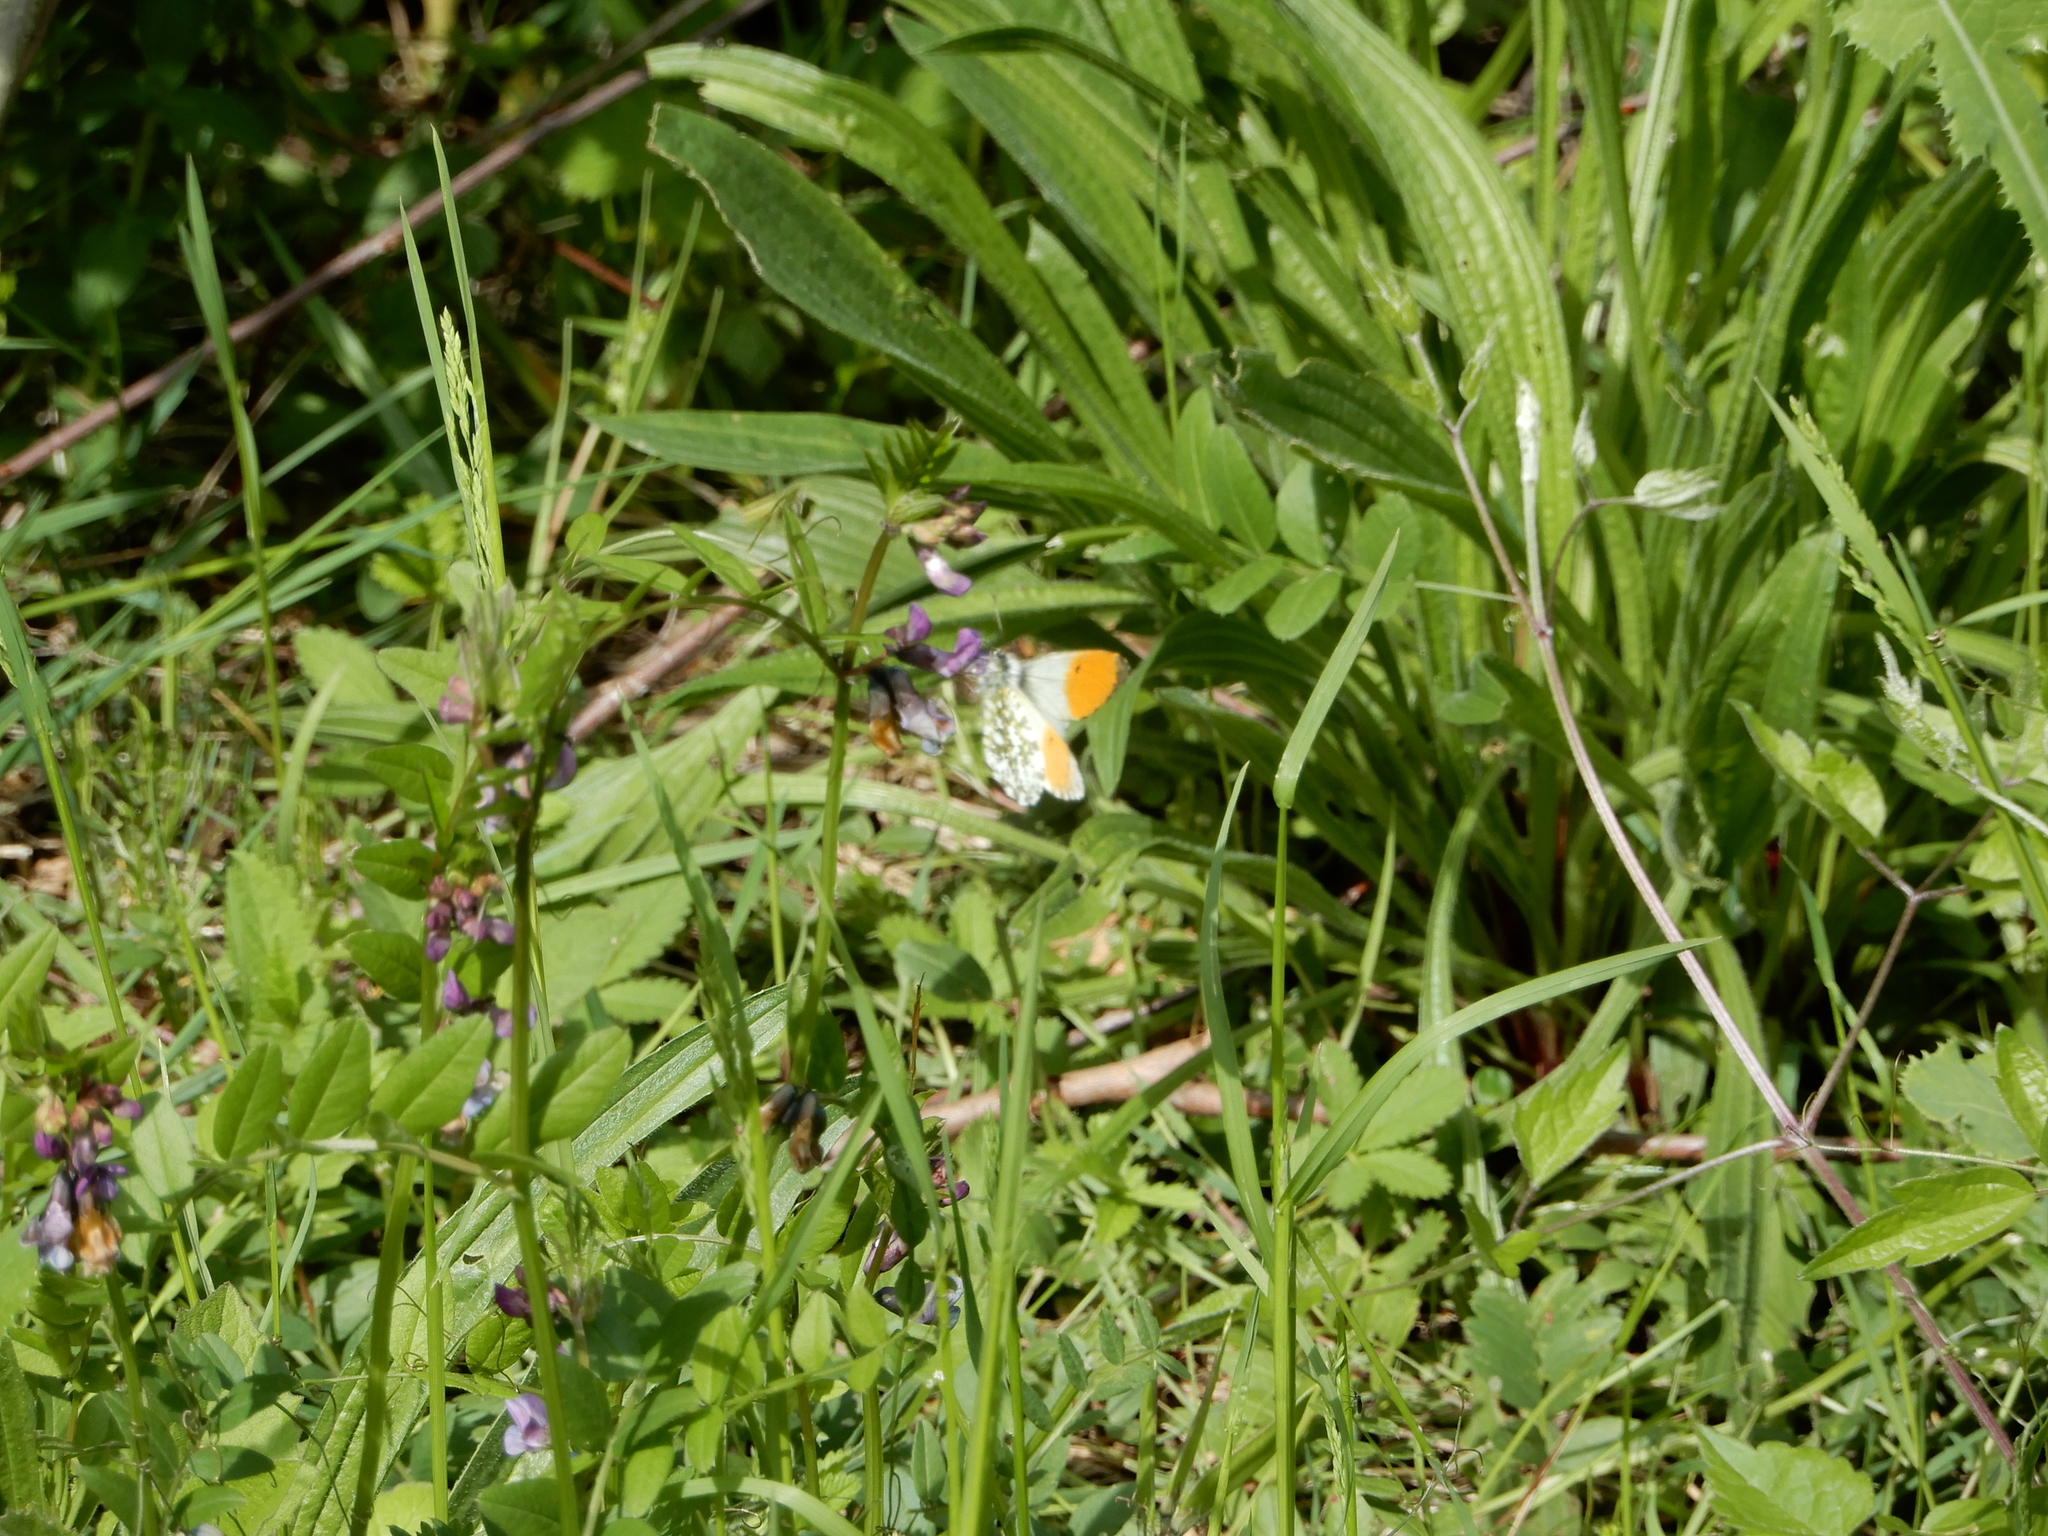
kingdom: Animalia
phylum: Arthropoda
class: Insecta
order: Lepidoptera
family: Pieridae
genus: Anthocharis
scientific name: Anthocharis cardamines
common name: Orange-tip
